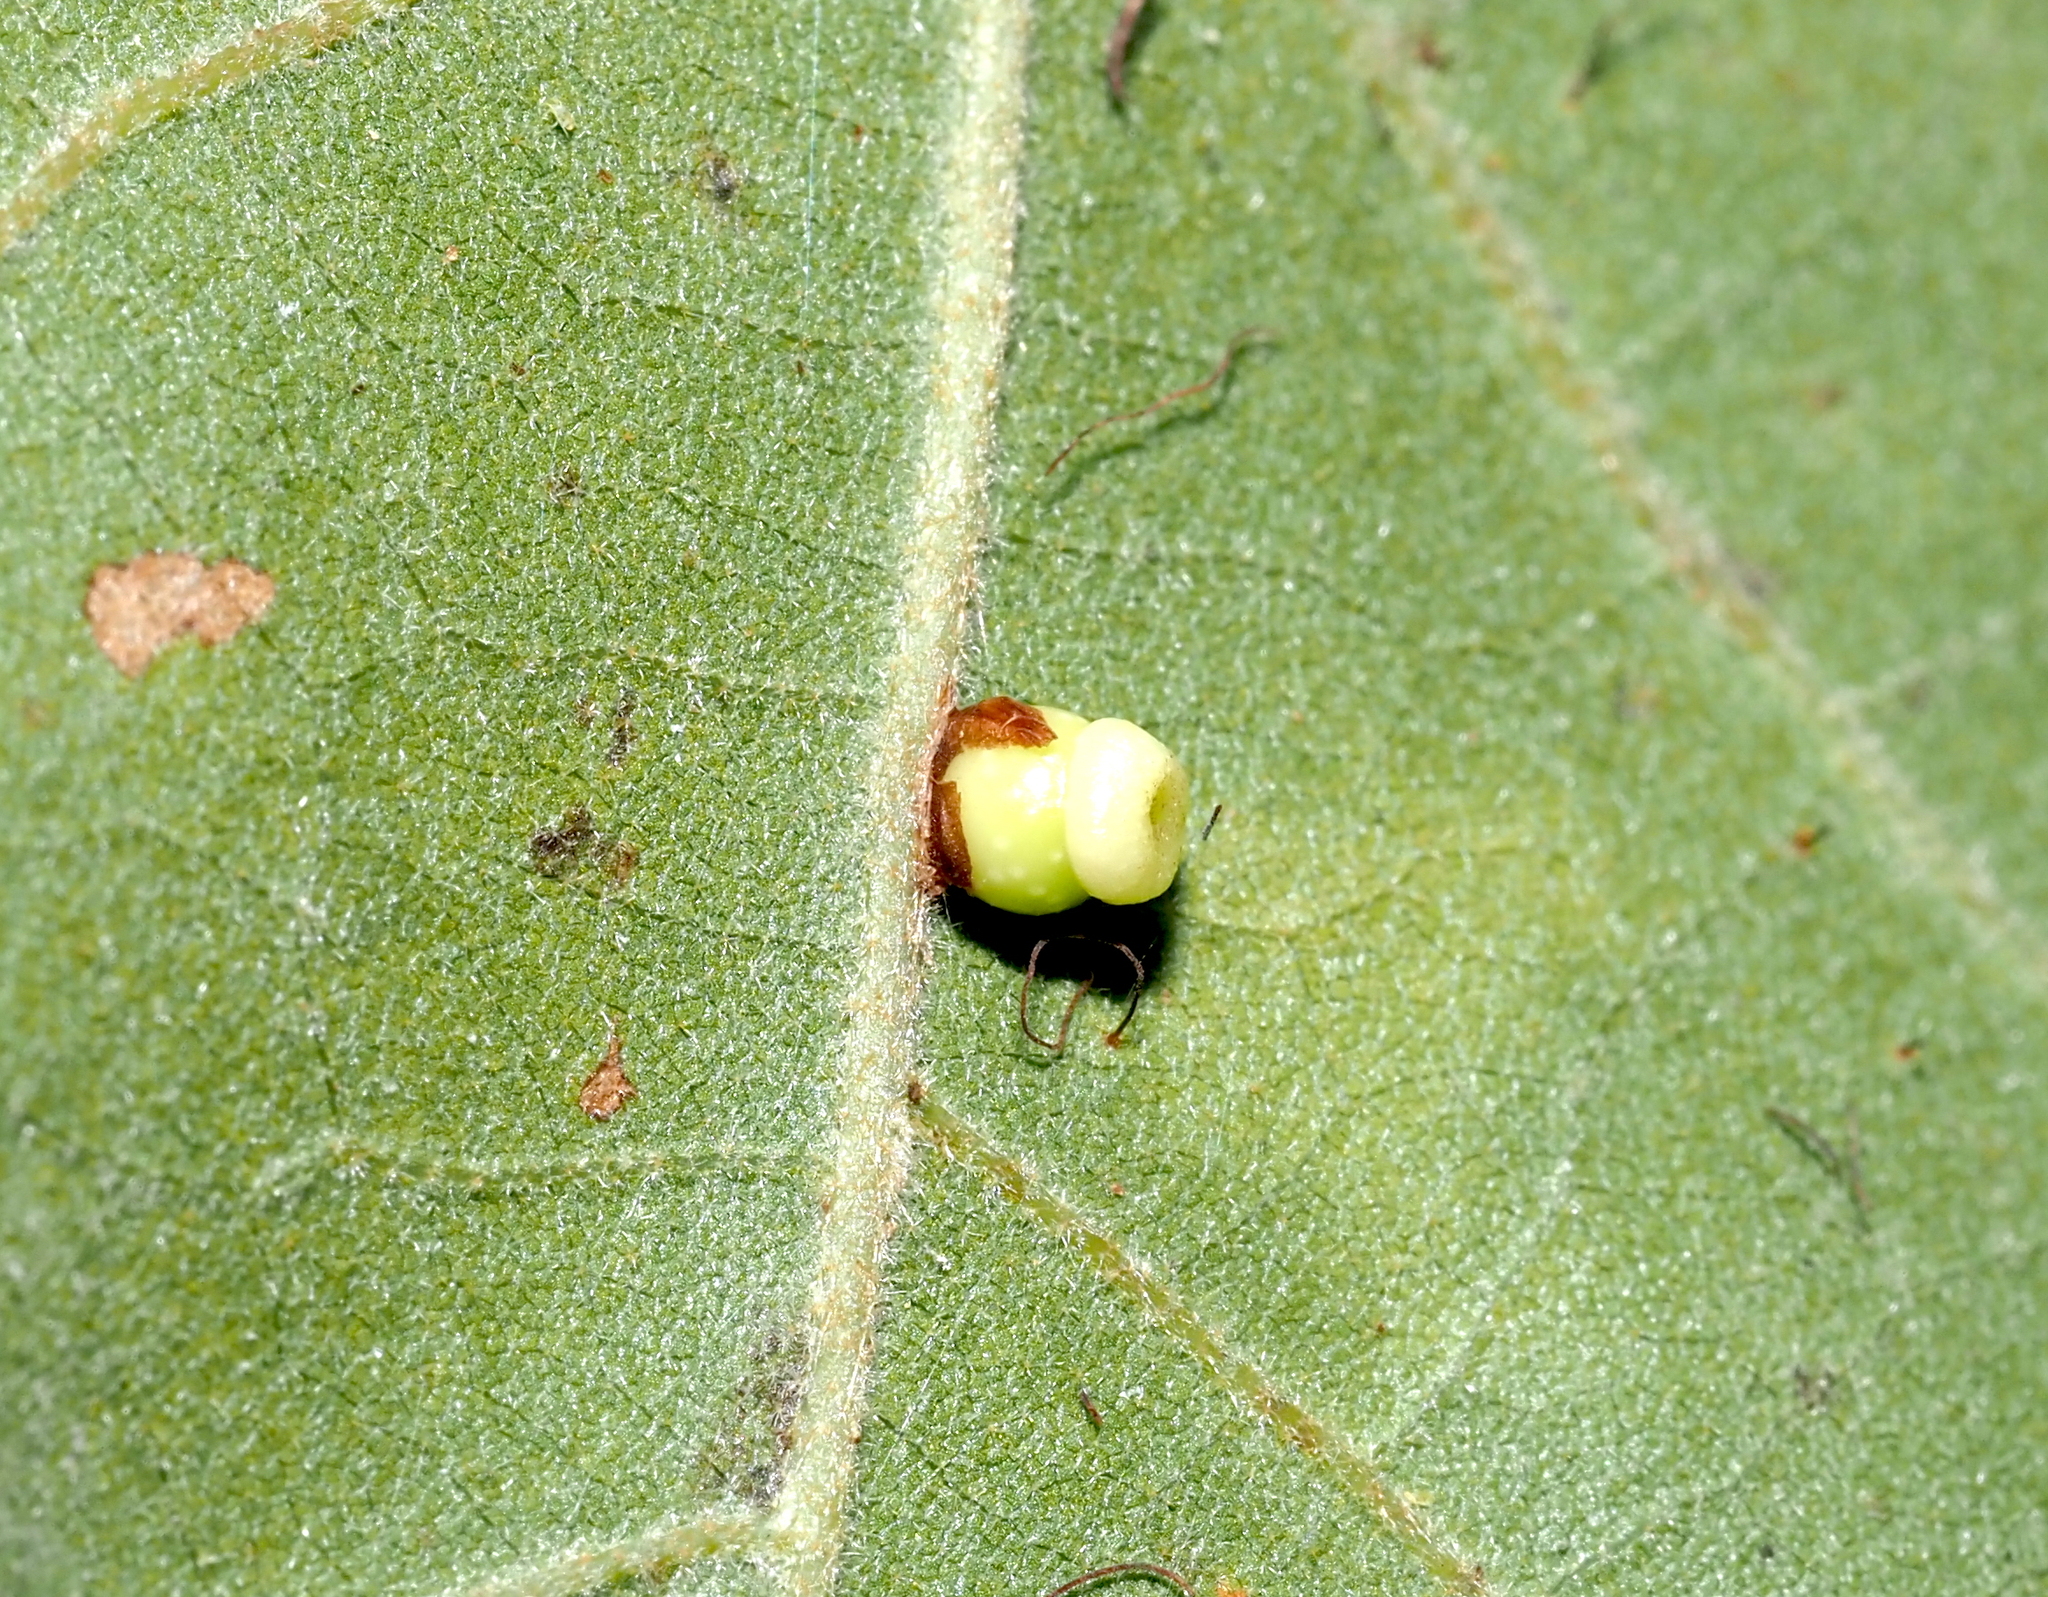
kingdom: Animalia
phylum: Arthropoda
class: Insecta
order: Hymenoptera
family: Cynipidae
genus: Kokkocynips
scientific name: Kokkocynips rileyi
